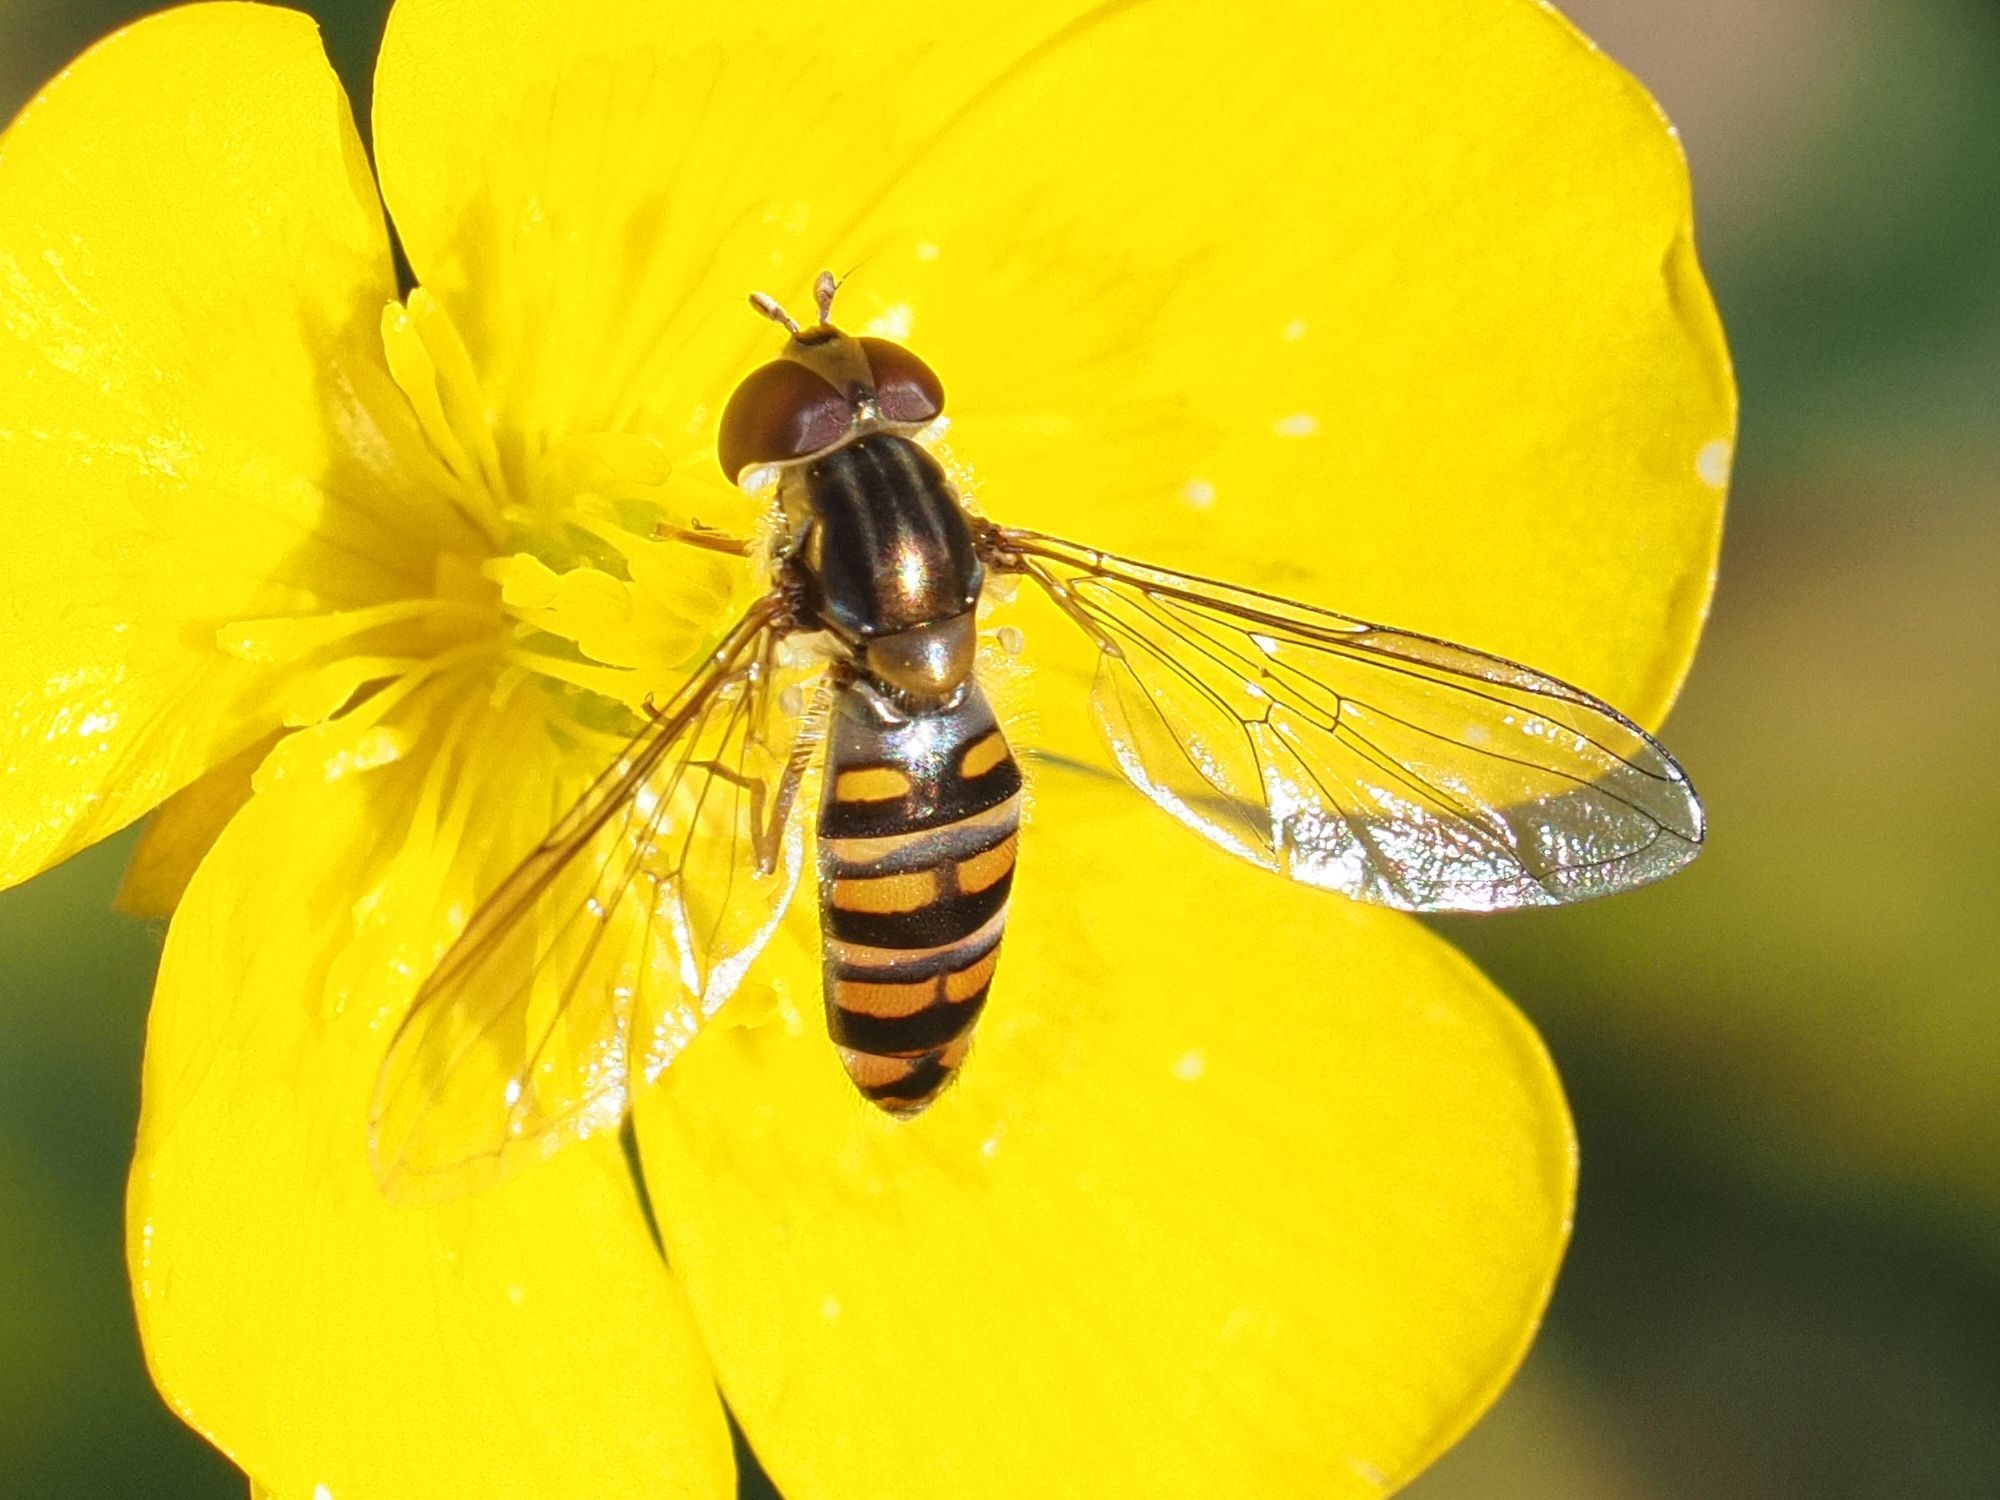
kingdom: Animalia
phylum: Arthropoda
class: Insecta
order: Diptera
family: Syrphidae
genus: Episyrphus
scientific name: Episyrphus balteatus
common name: Marmalade hoverfly
